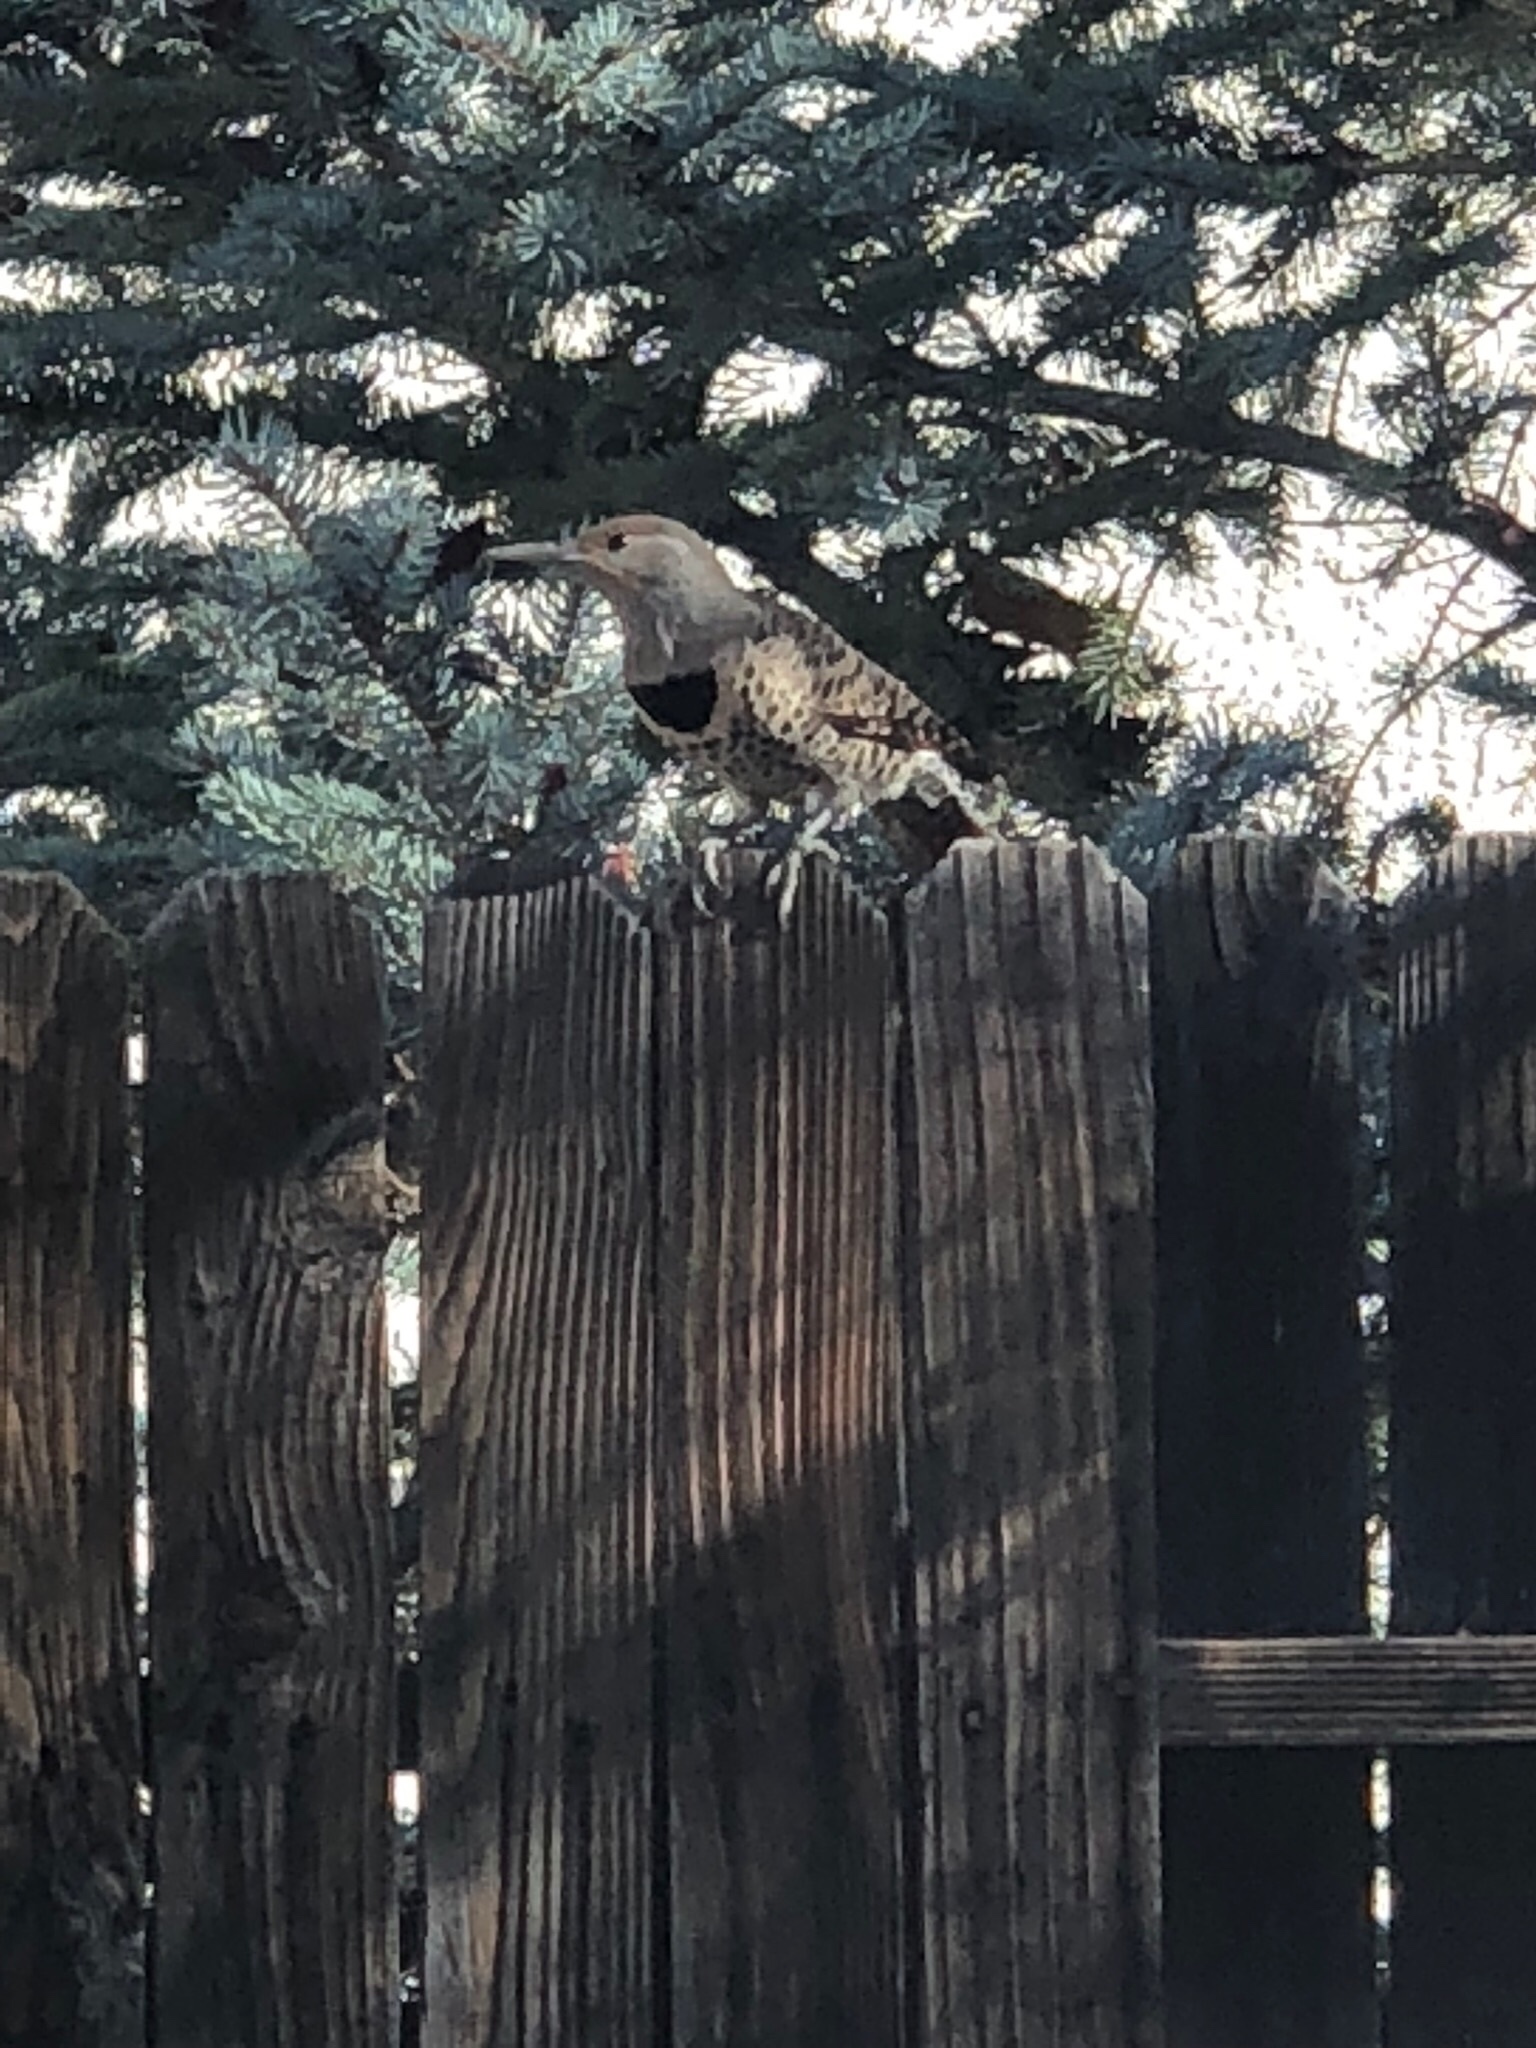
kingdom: Animalia
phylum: Chordata
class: Aves
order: Piciformes
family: Picidae
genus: Colaptes
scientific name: Colaptes auratus
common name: Northern flicker
